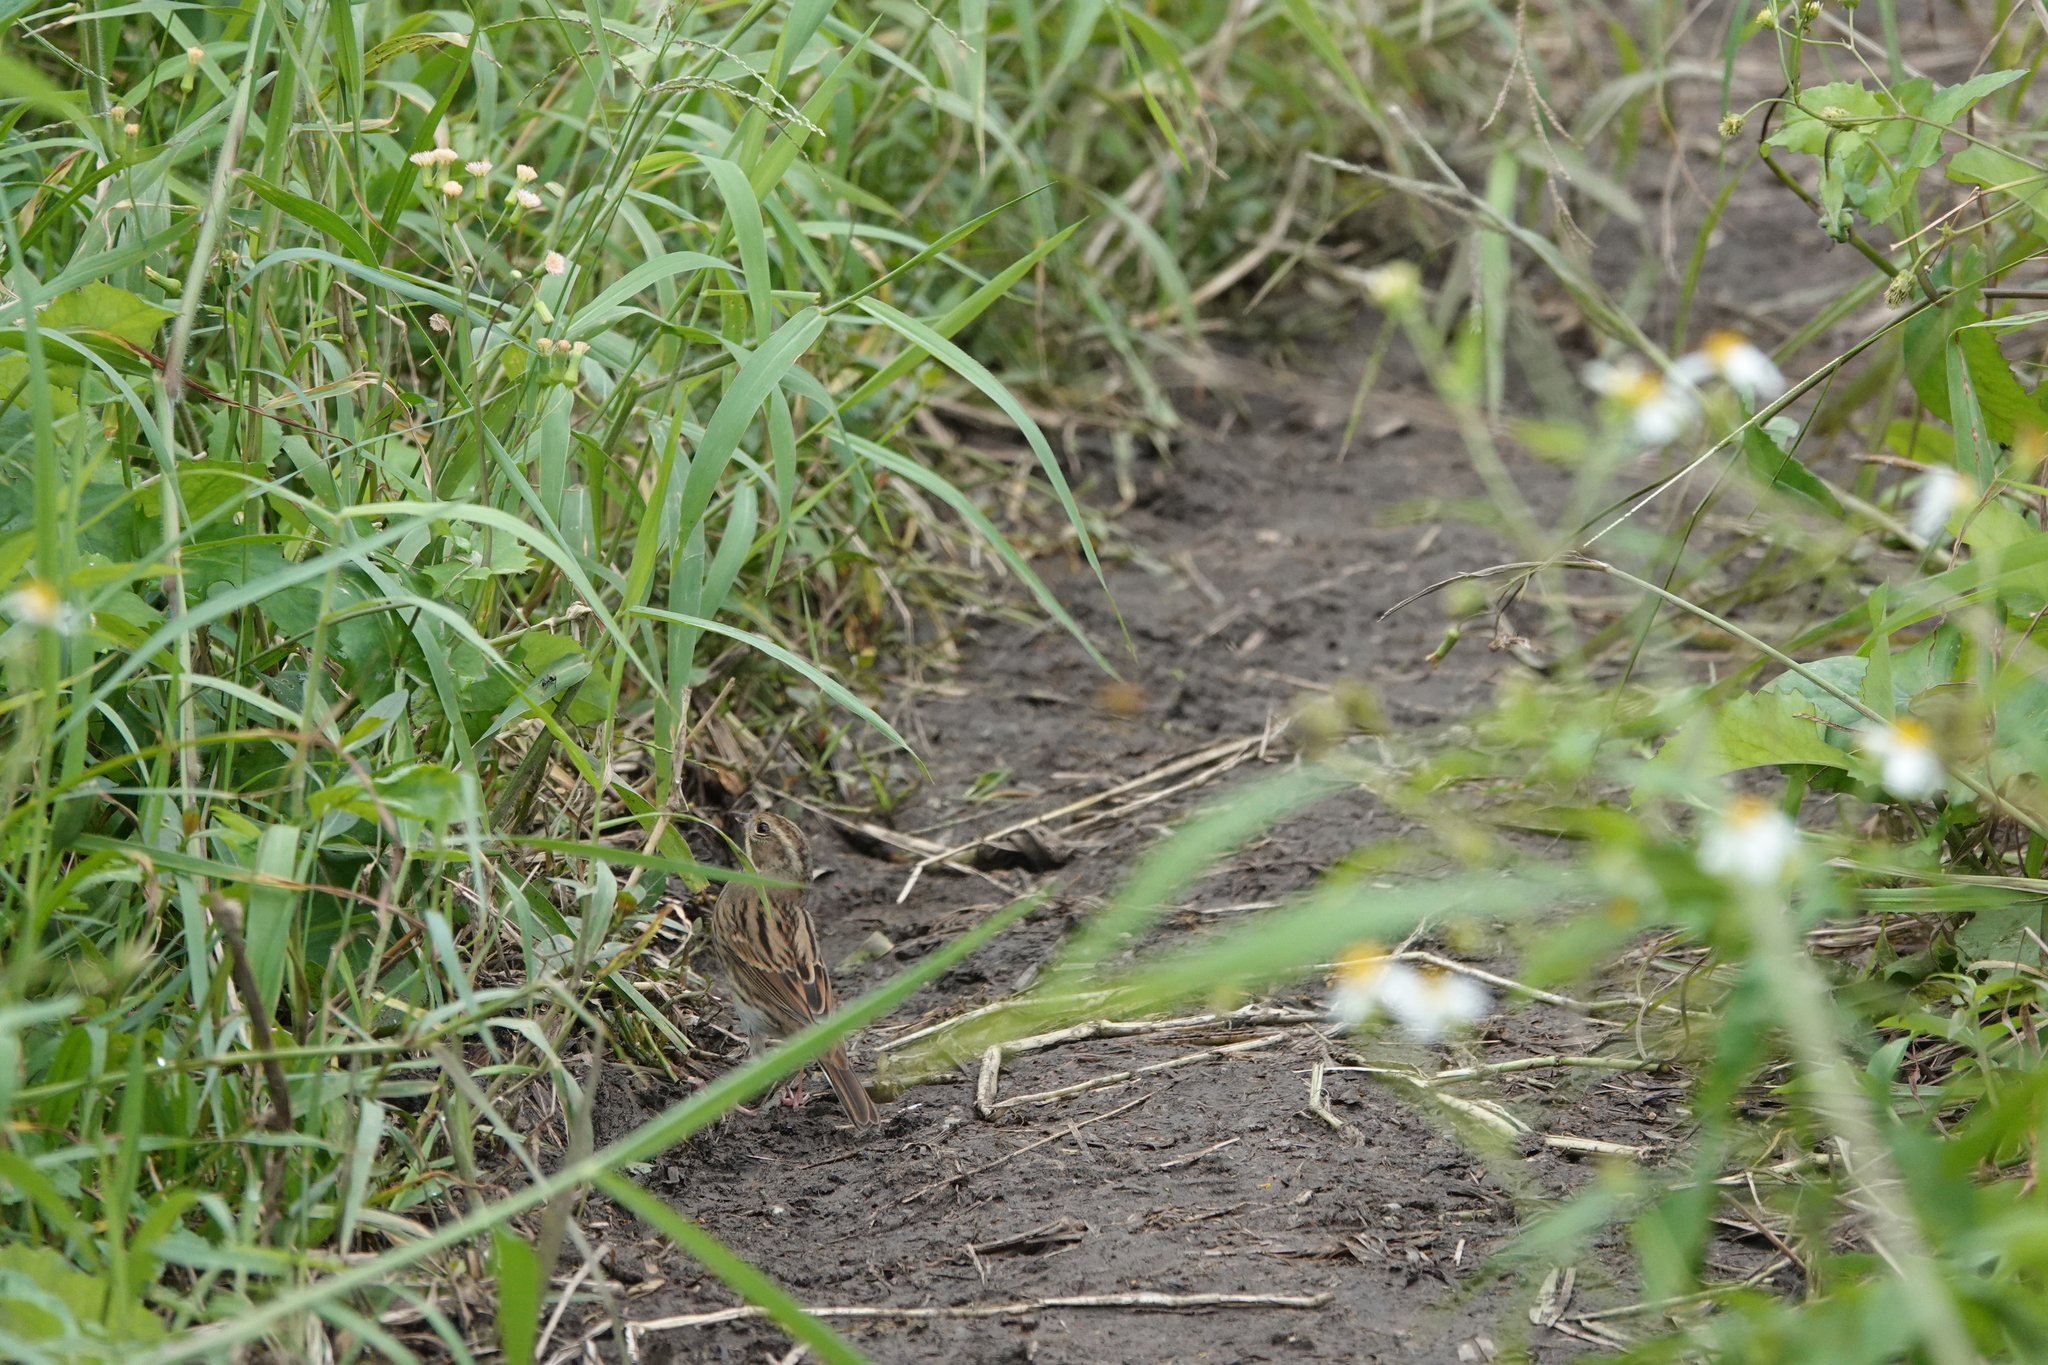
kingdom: Animalia
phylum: Chordata
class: Aves
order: Passeriformes
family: Emberizidae
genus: Emberiza
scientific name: Emberiza spodocephala
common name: Black-faced bunting
